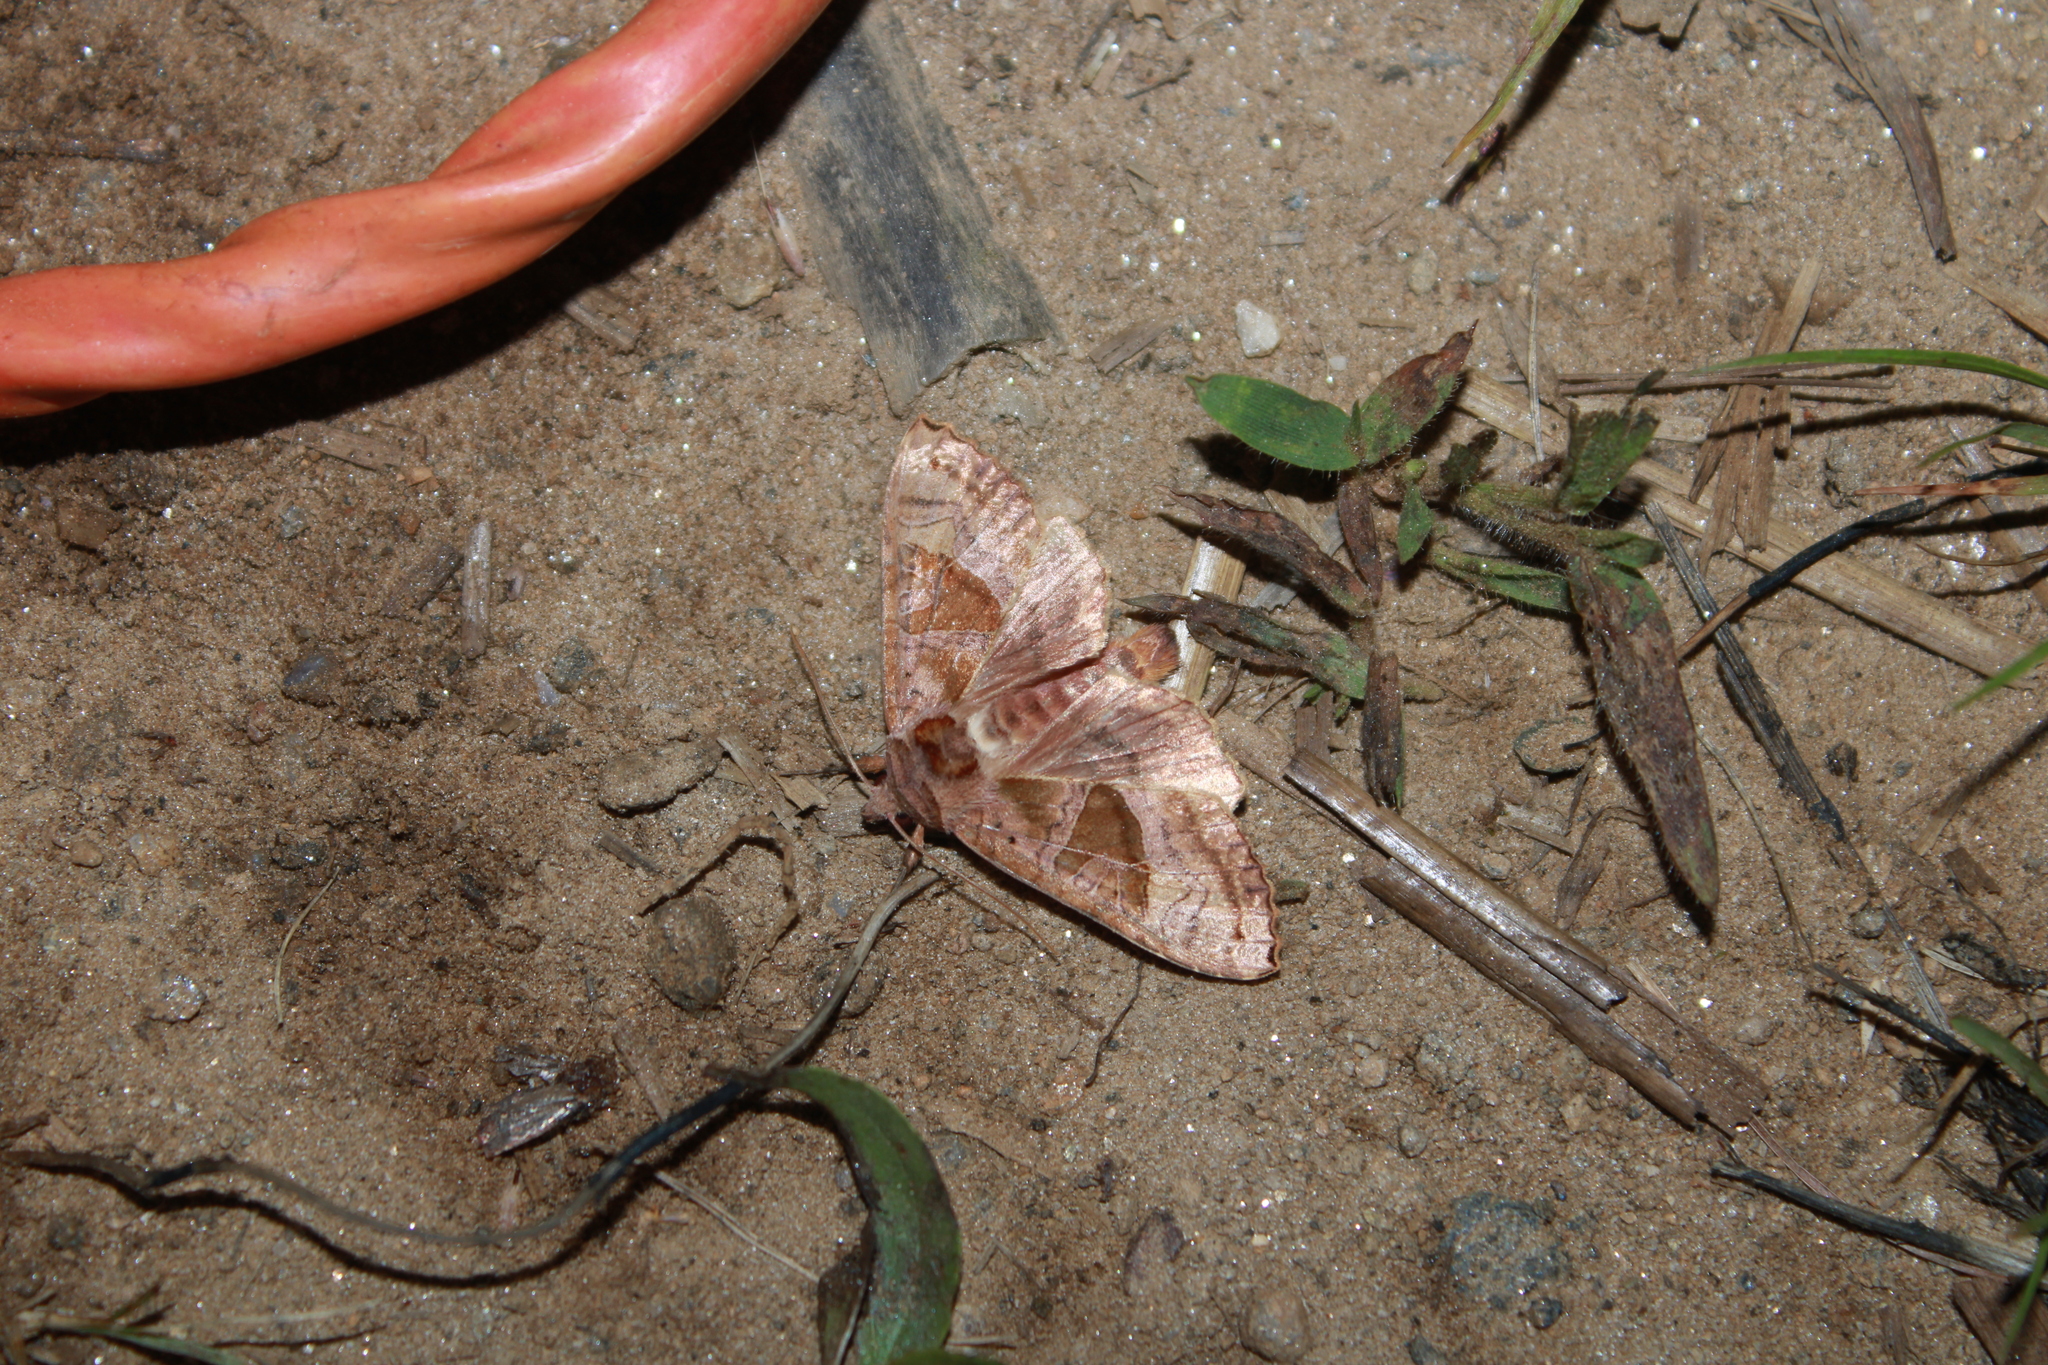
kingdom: Animalia
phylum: Arthropoda
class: Insecta
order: Lepidoptera
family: Noctuidae
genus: Phlogophora
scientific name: Phlogophora periculosa
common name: Brown angle shades
